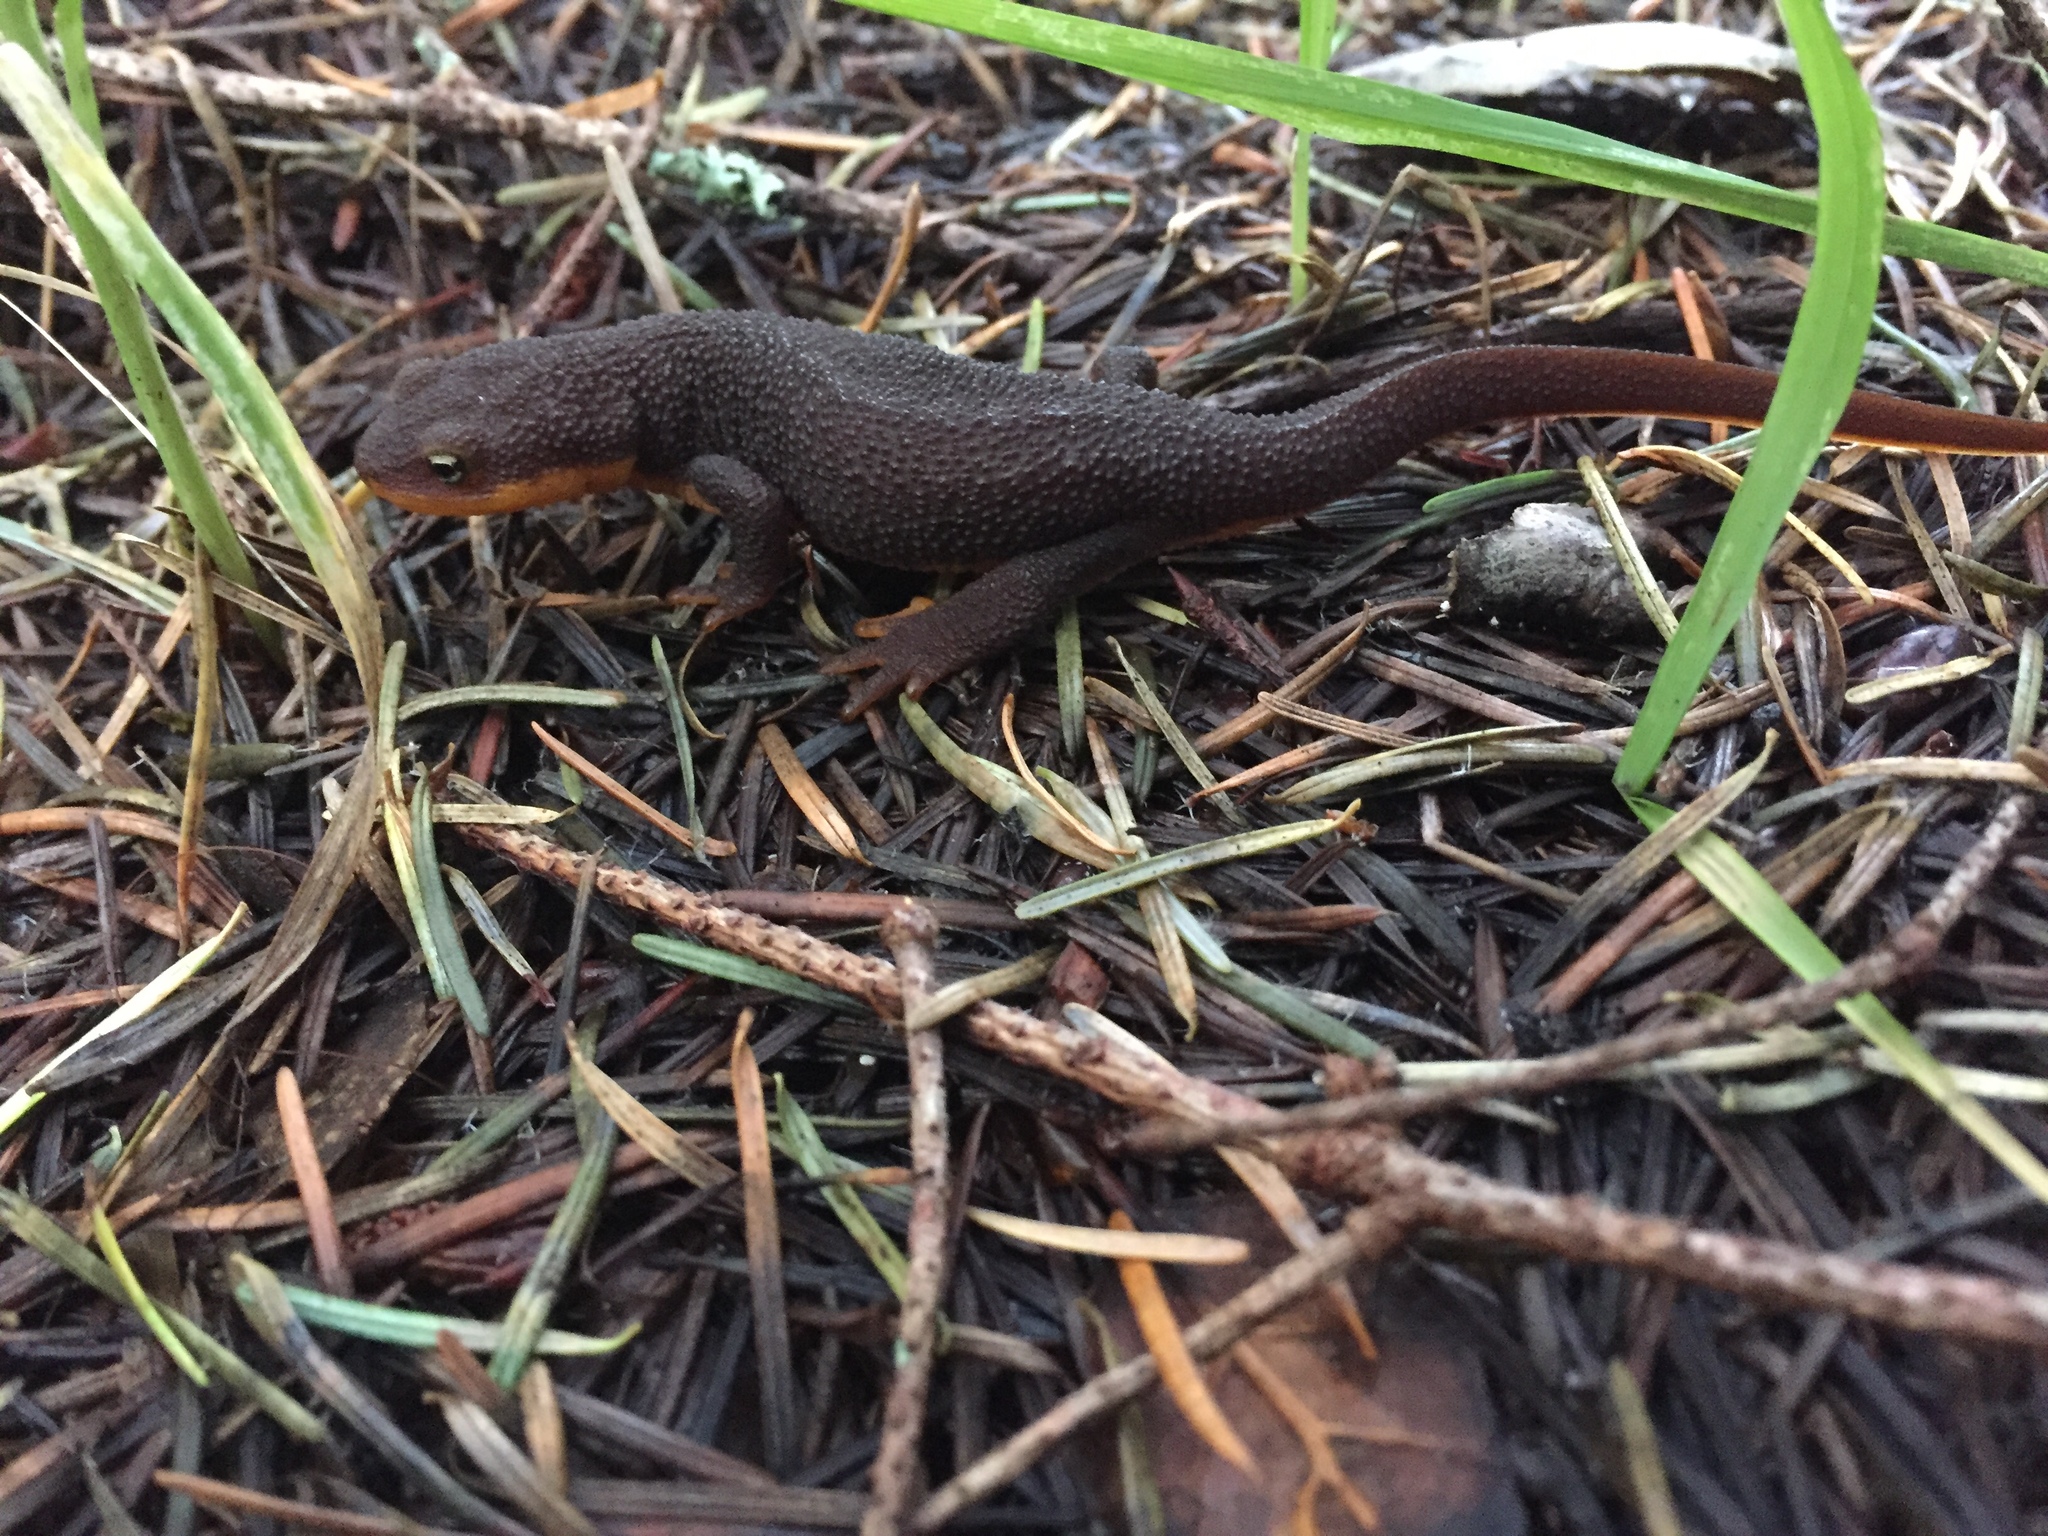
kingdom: Animalia
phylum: Chordata
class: Amphibia
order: Caudata
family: Salamandridae
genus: Taricha
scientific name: Taricha granulosa
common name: Roughskin newt
